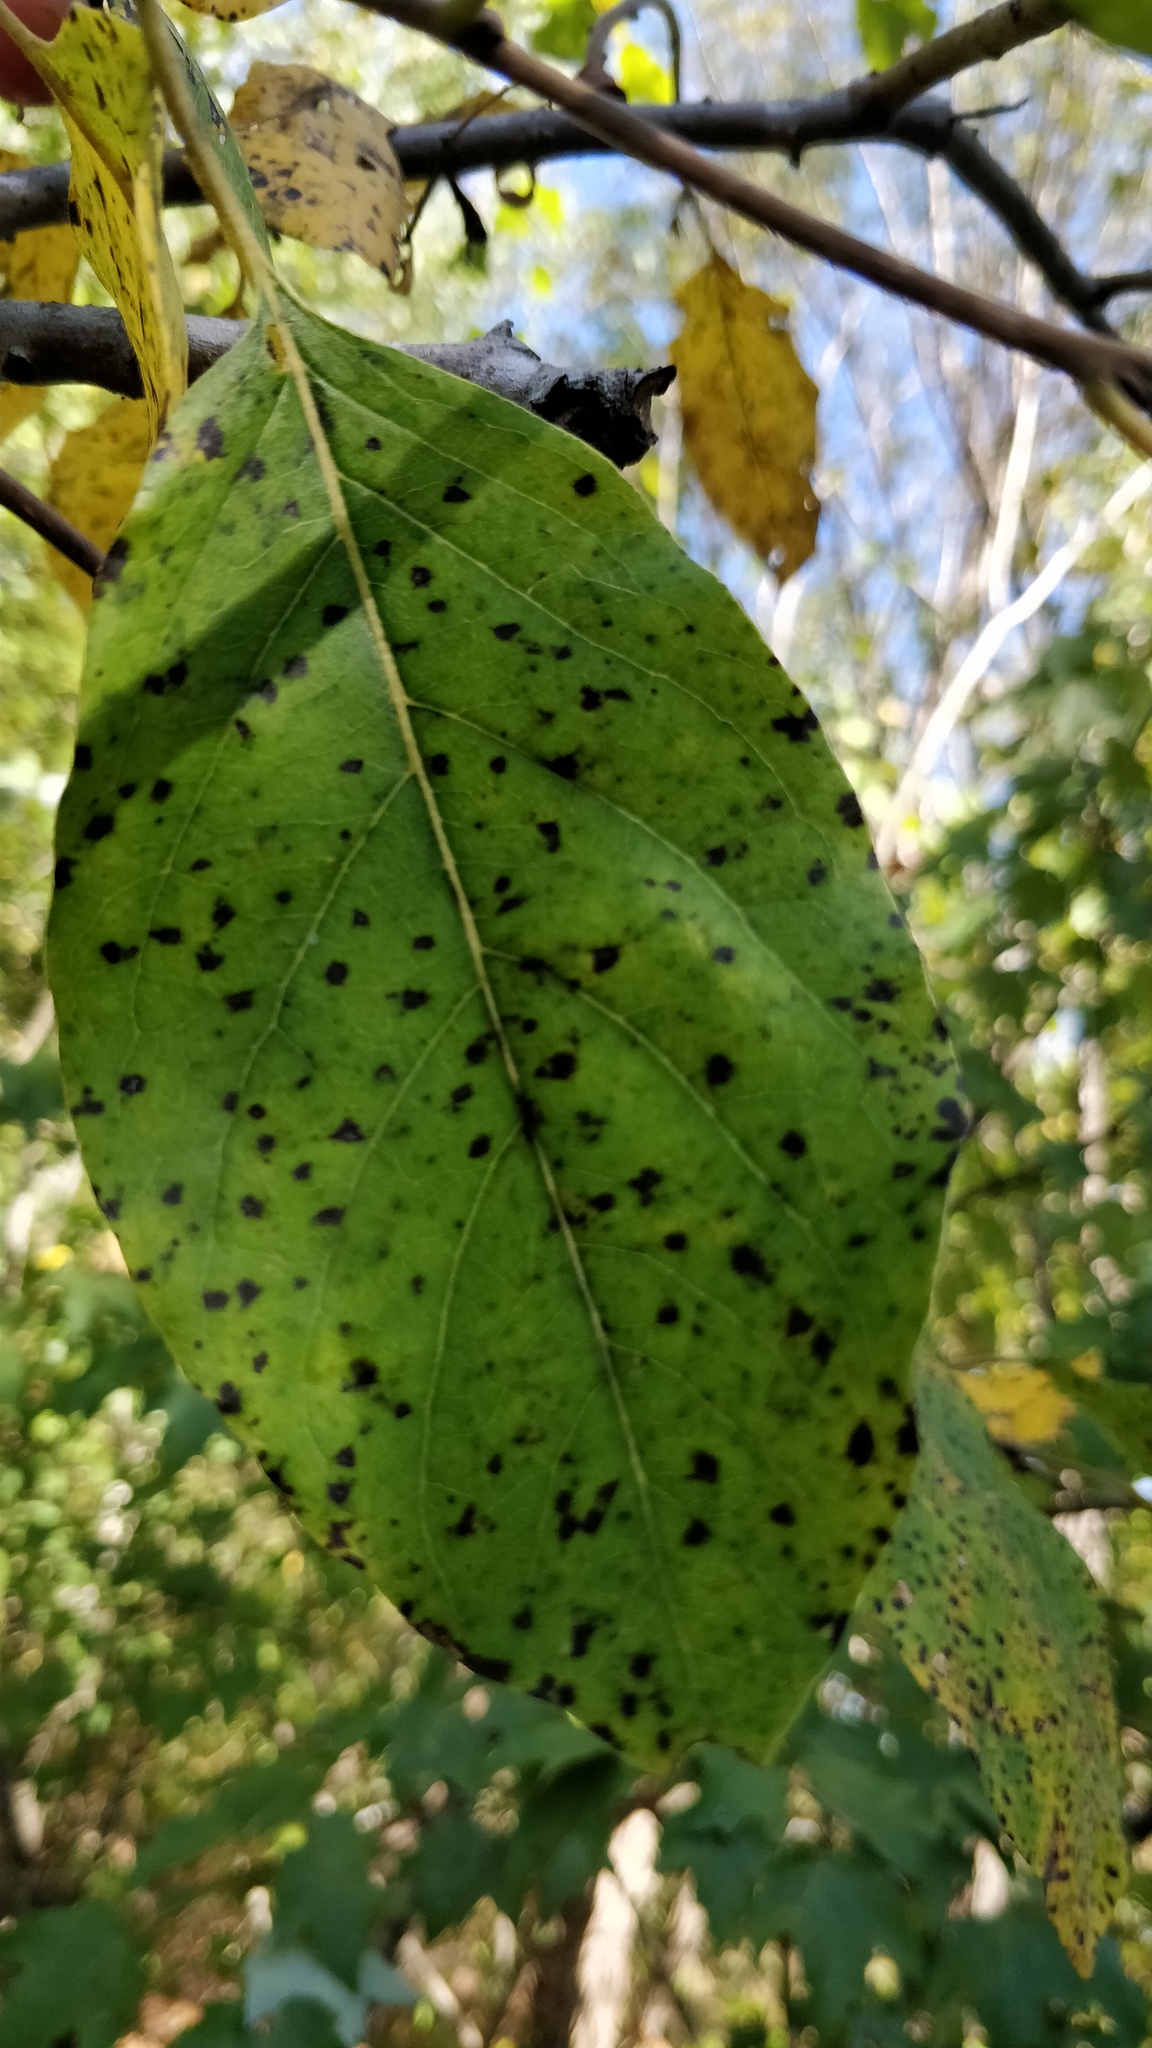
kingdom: Plantae
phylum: Tracheophyta
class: Magnoliopsida
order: Ericales
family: Ebenaceae
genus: Diospyros
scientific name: Diospyros virginiana
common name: Persimmon
